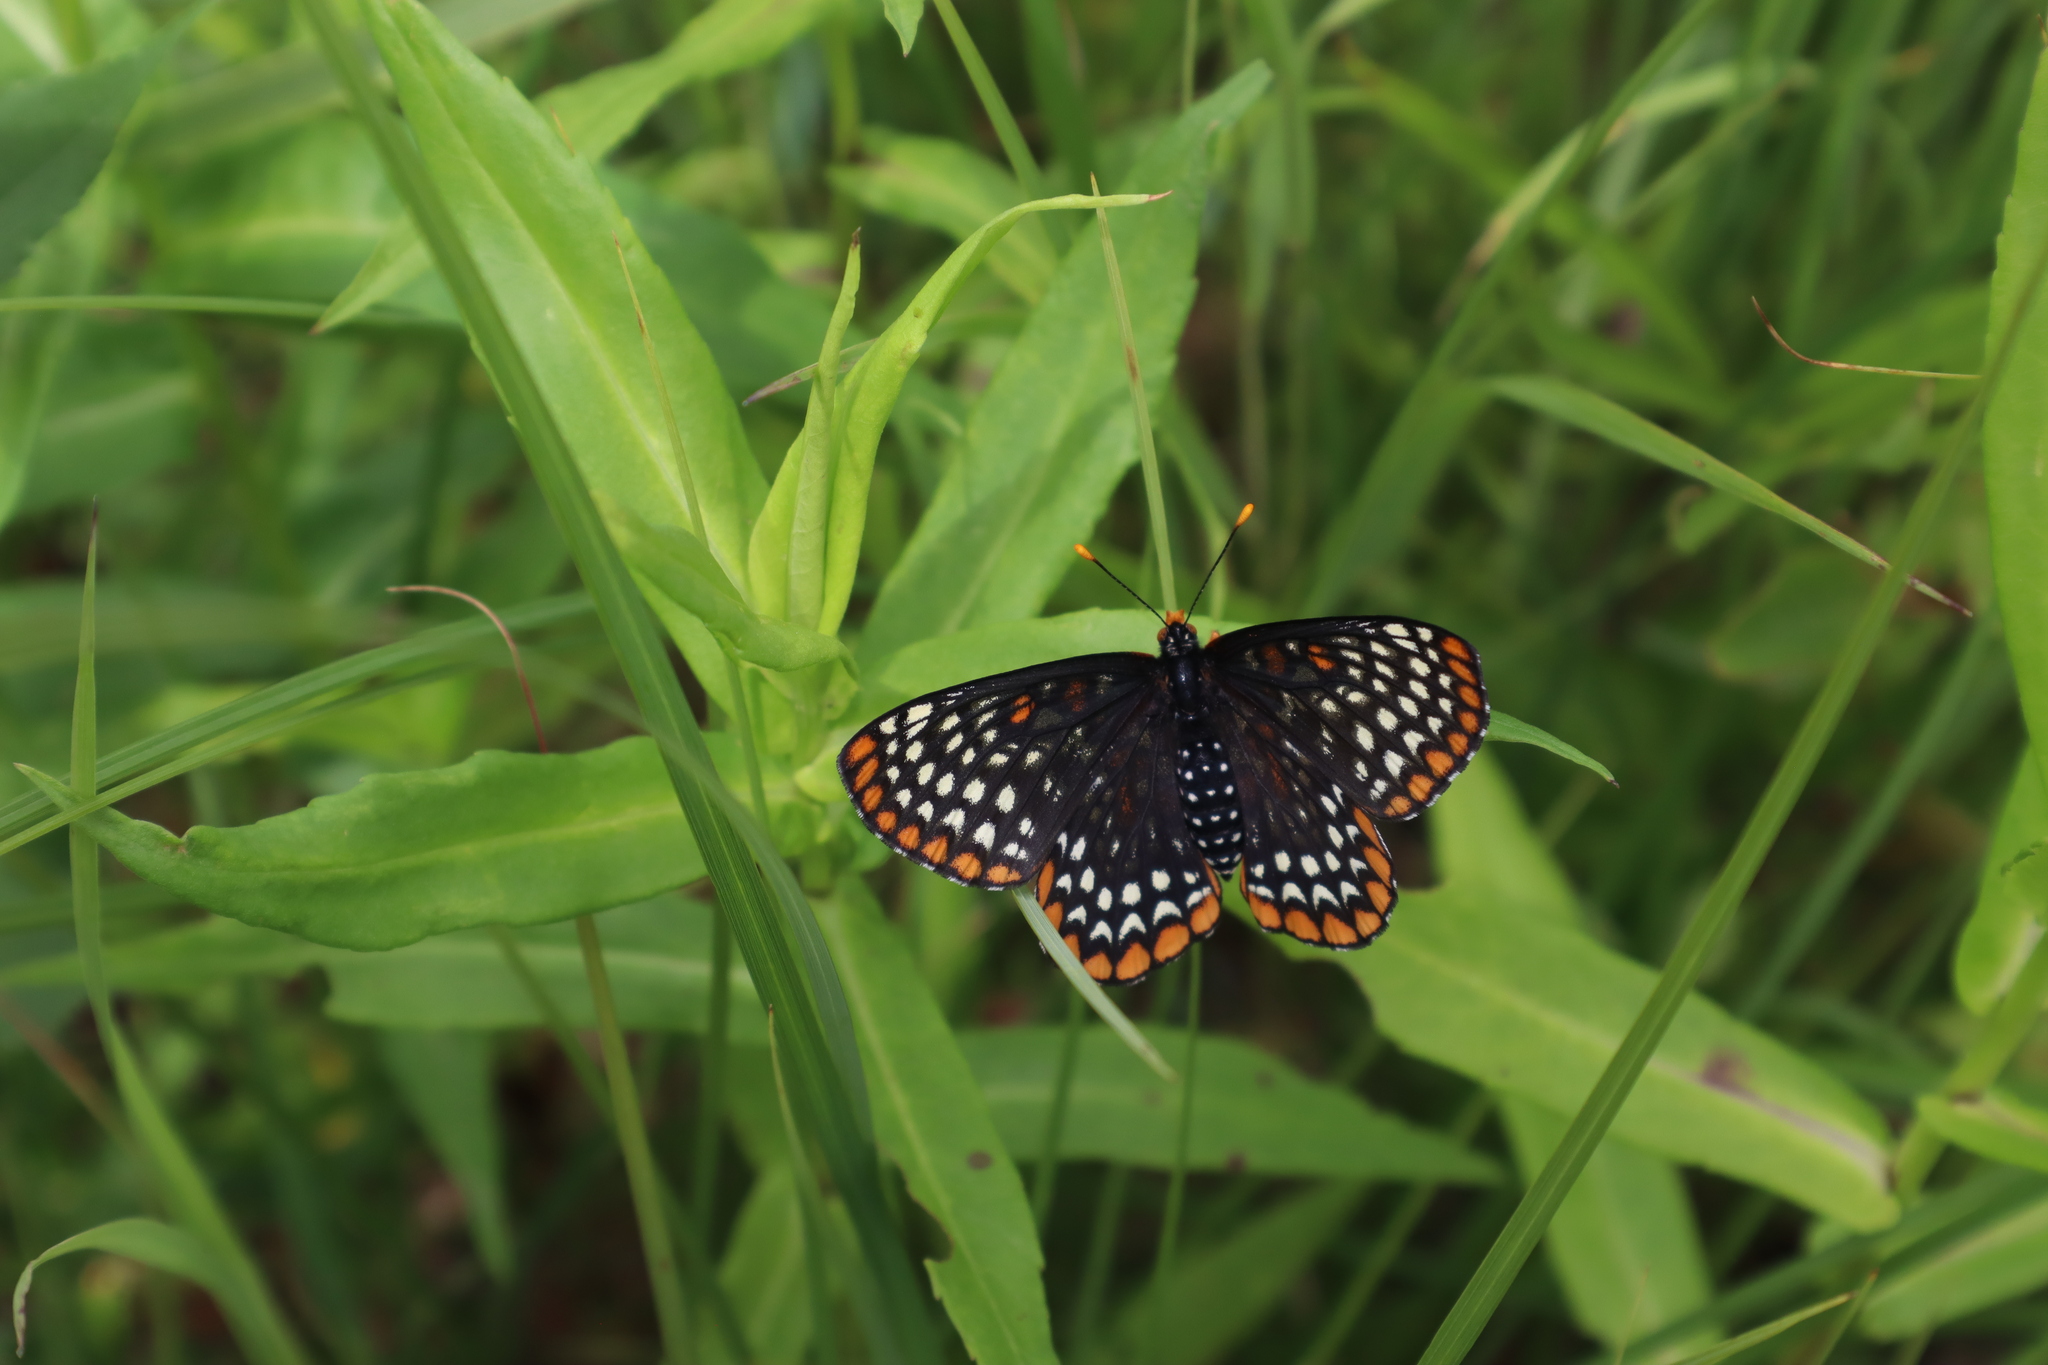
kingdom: Animalia
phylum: Arthropoda
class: Insecta
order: Lepidoptera
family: Nymphalidae
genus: Euphydryas
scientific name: Euphydryas phaeton
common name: Baltimore checkerspot
